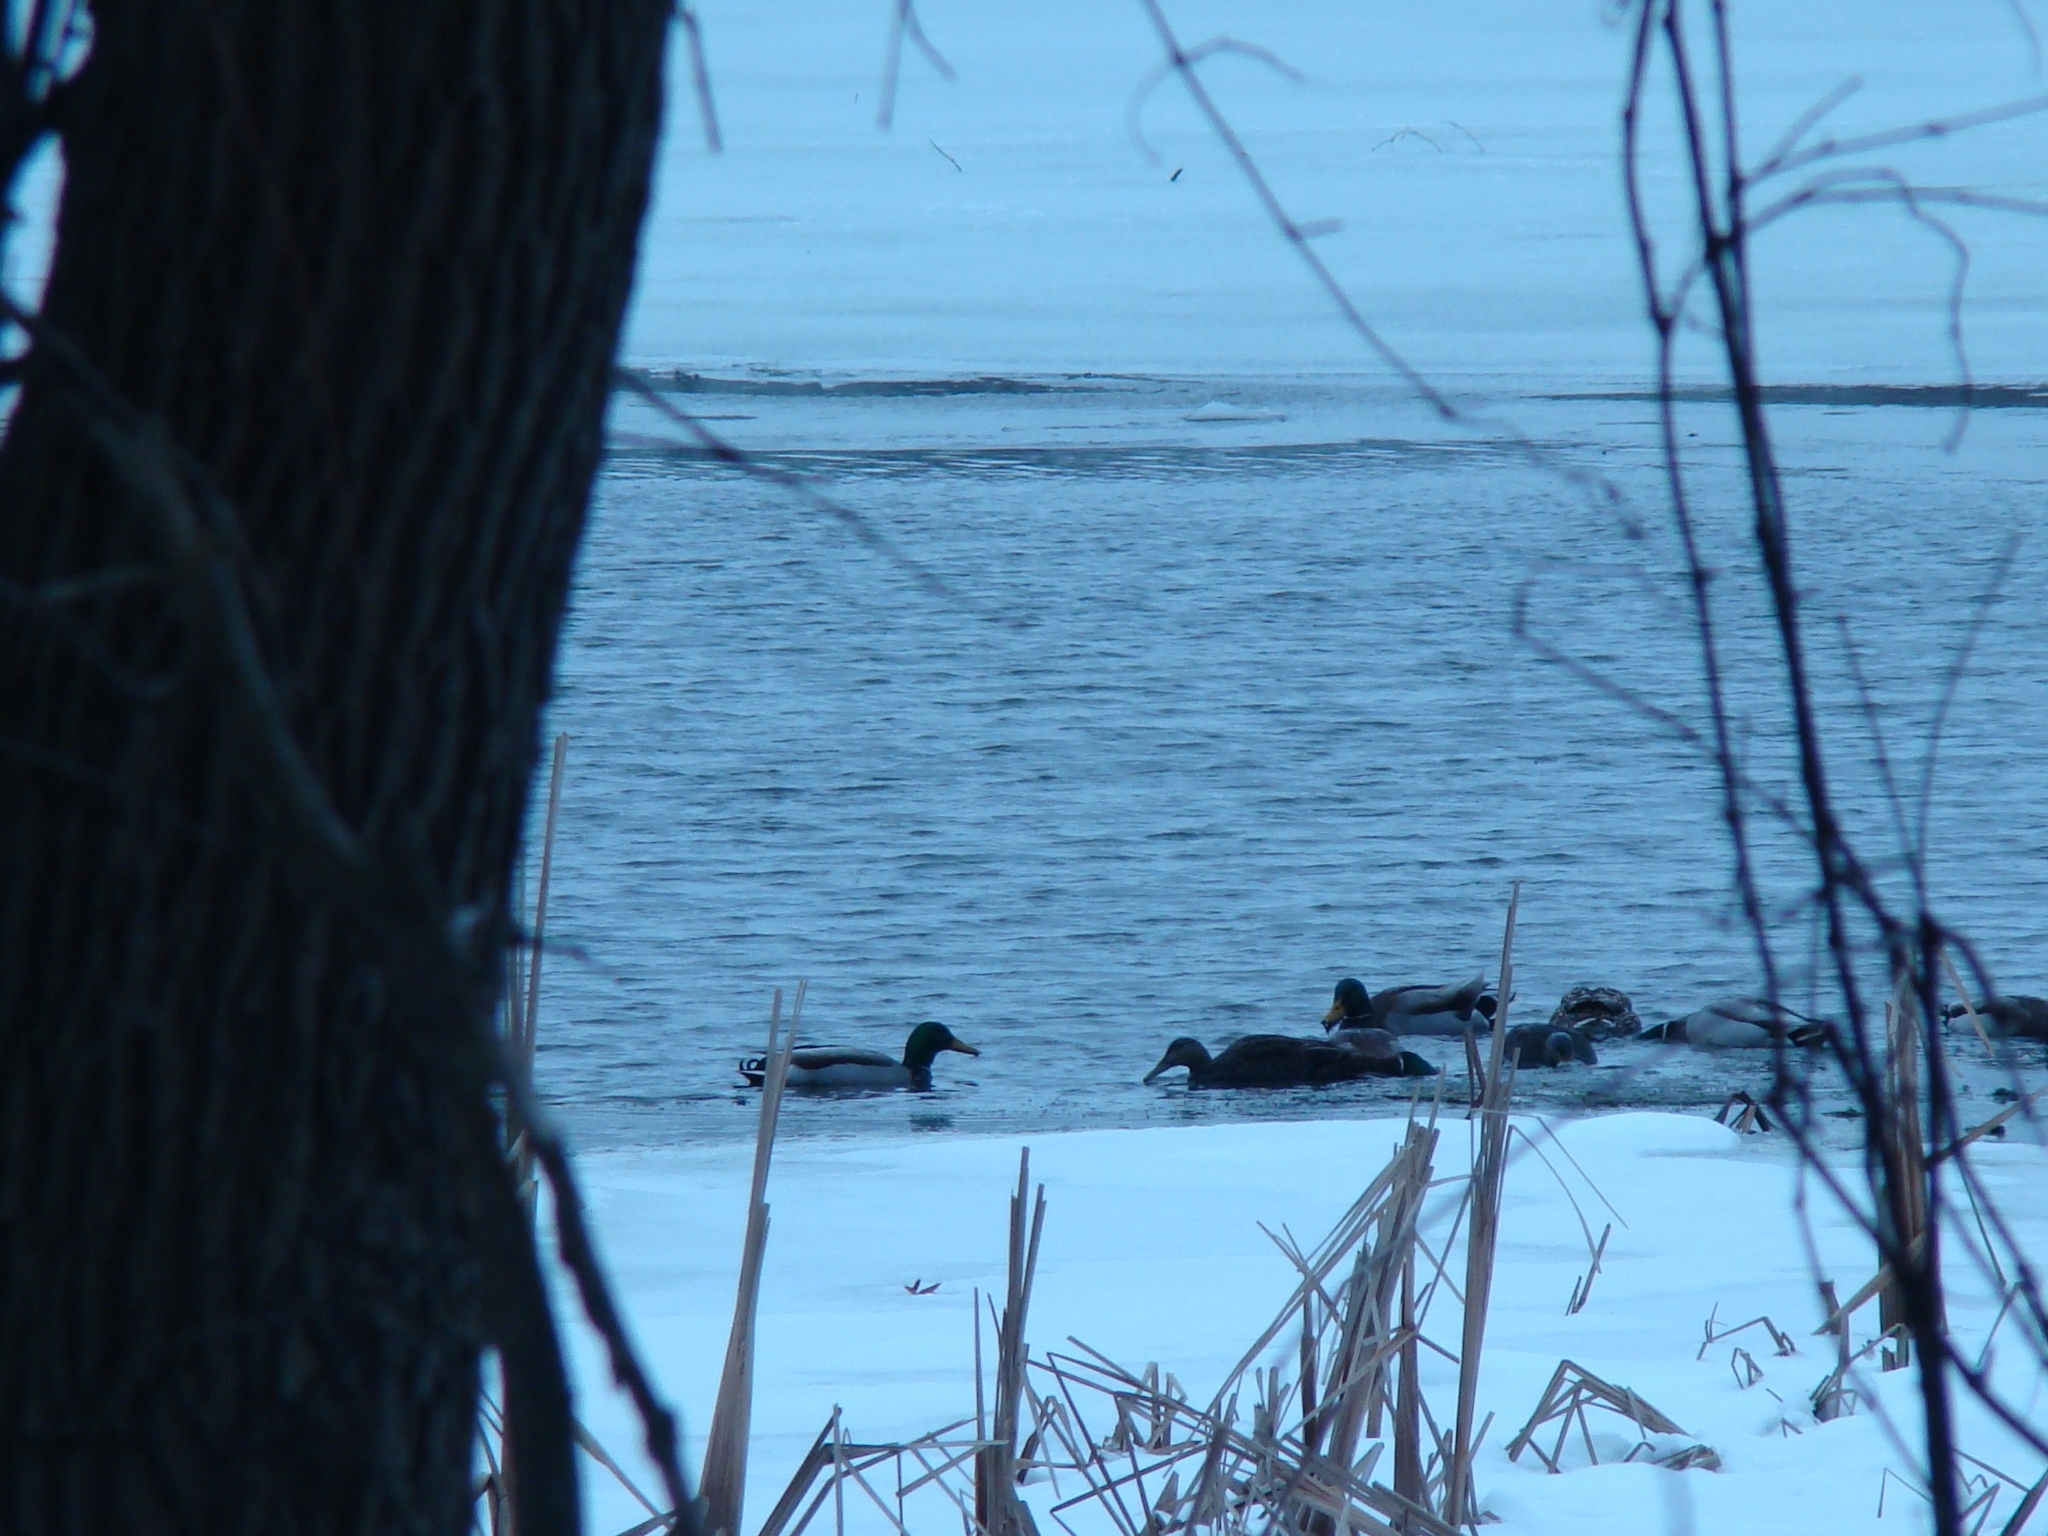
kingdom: Animalia
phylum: Chordata
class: Aves
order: Anseriformes
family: Anatidae
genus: Anas
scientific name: Anas platyrhynchos
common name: Mallard
